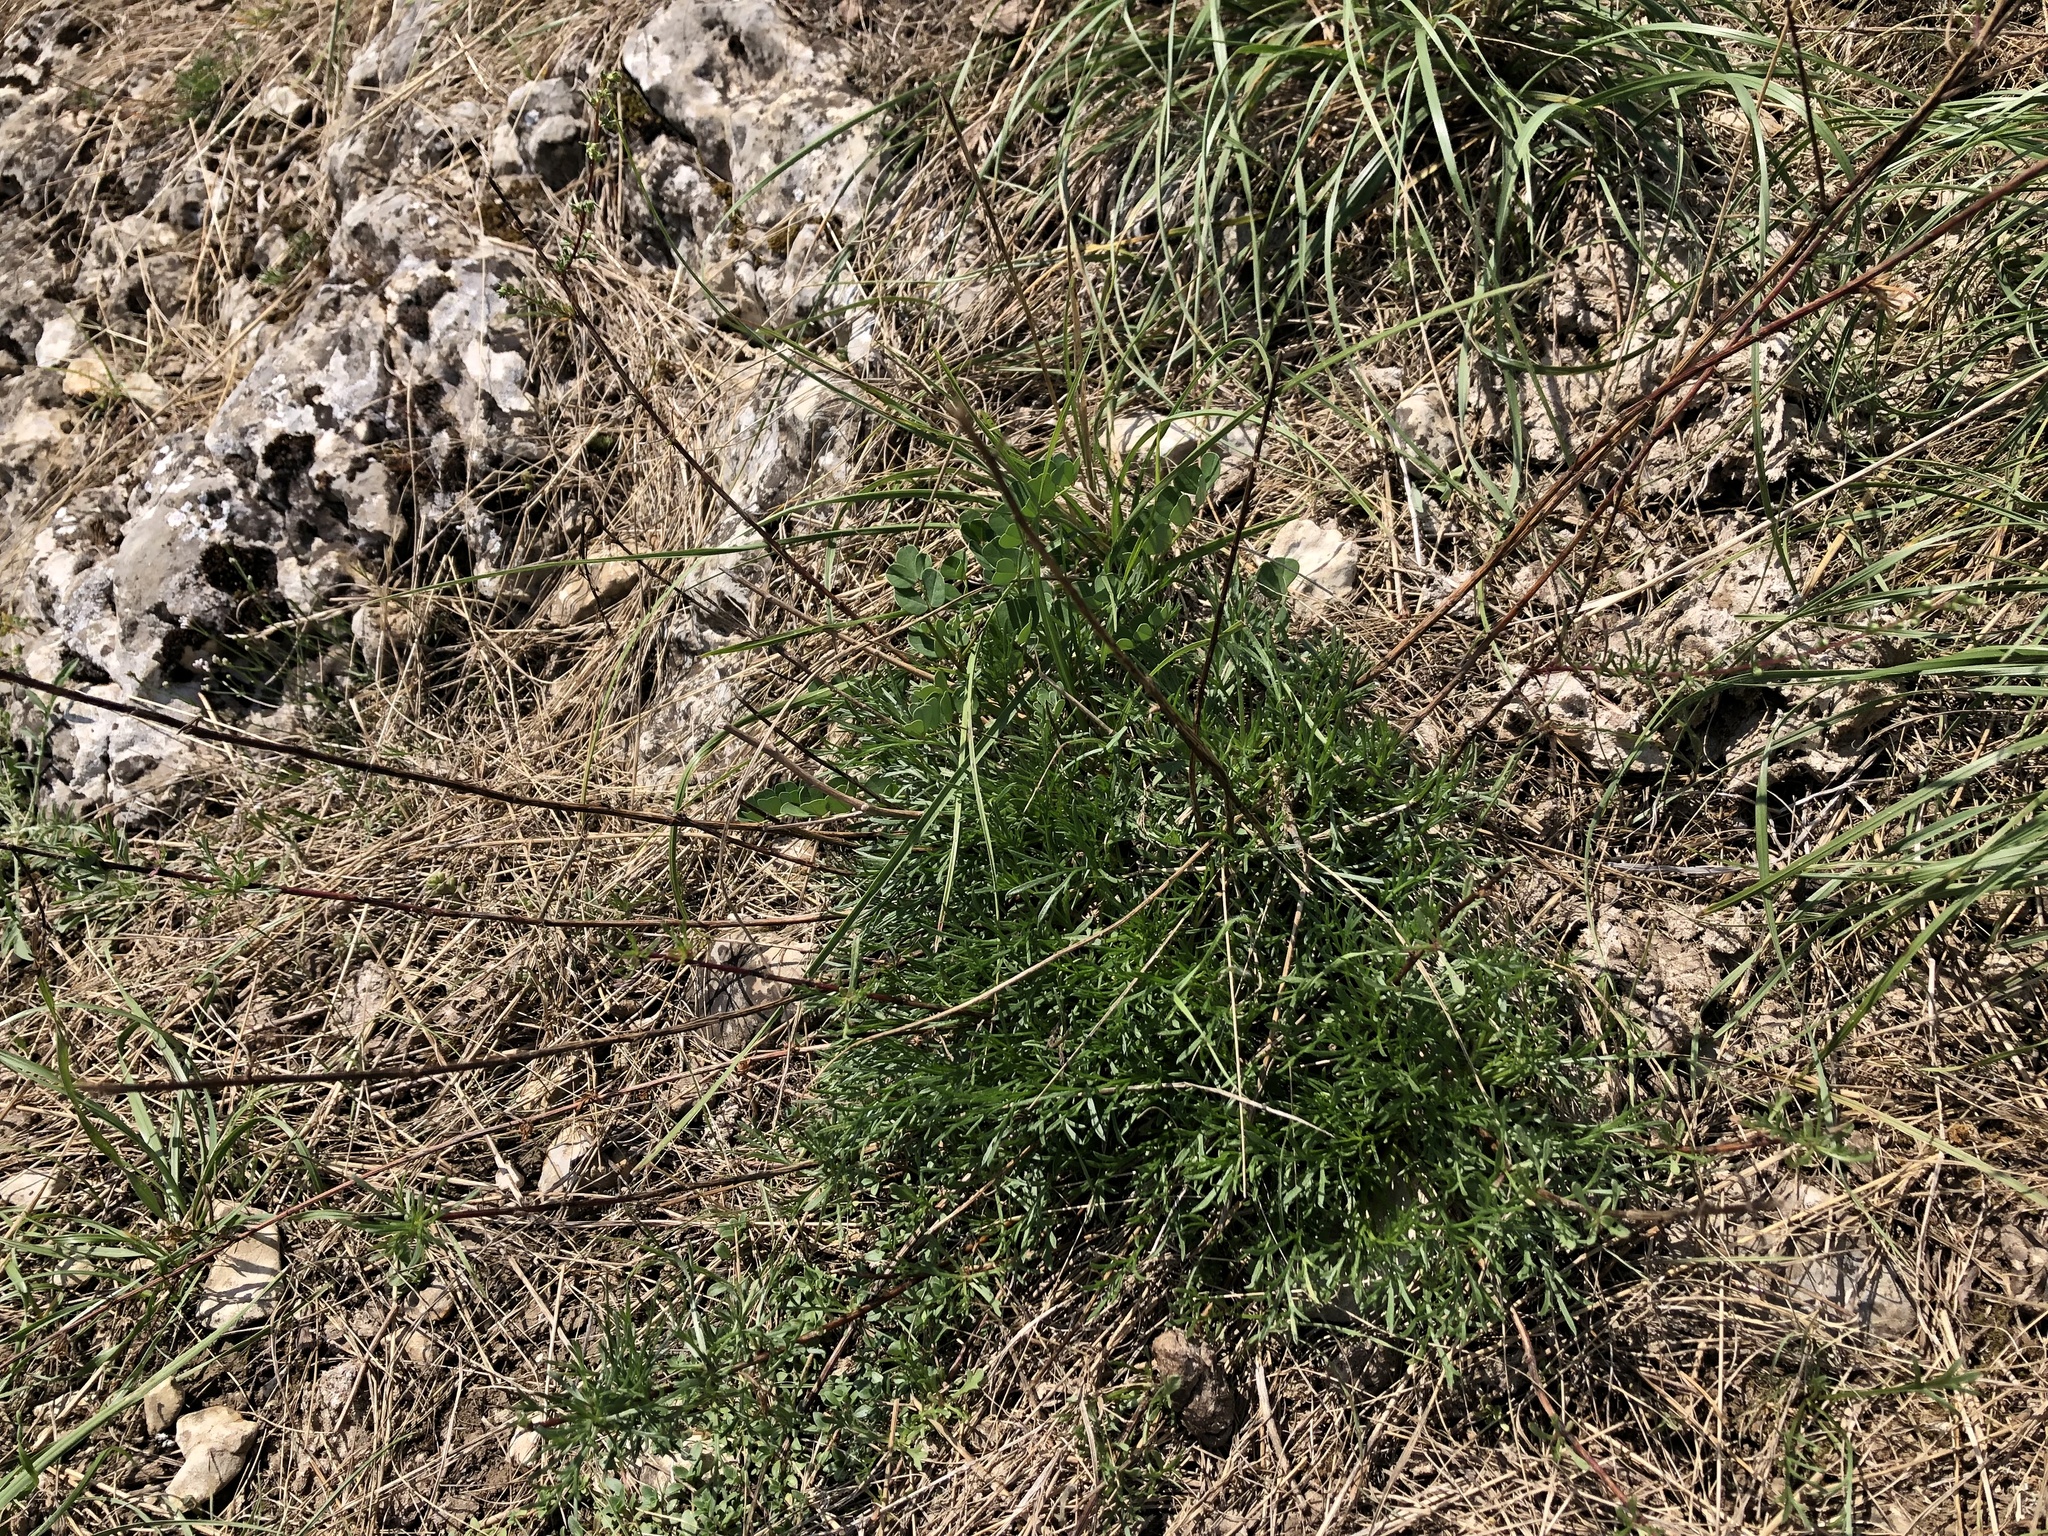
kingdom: Plantae
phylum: Tracheophyta
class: Magnoliopsida
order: Asterales
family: Asteraceae
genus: Artemisia
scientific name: Artemisia campestris
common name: Field wormwood
